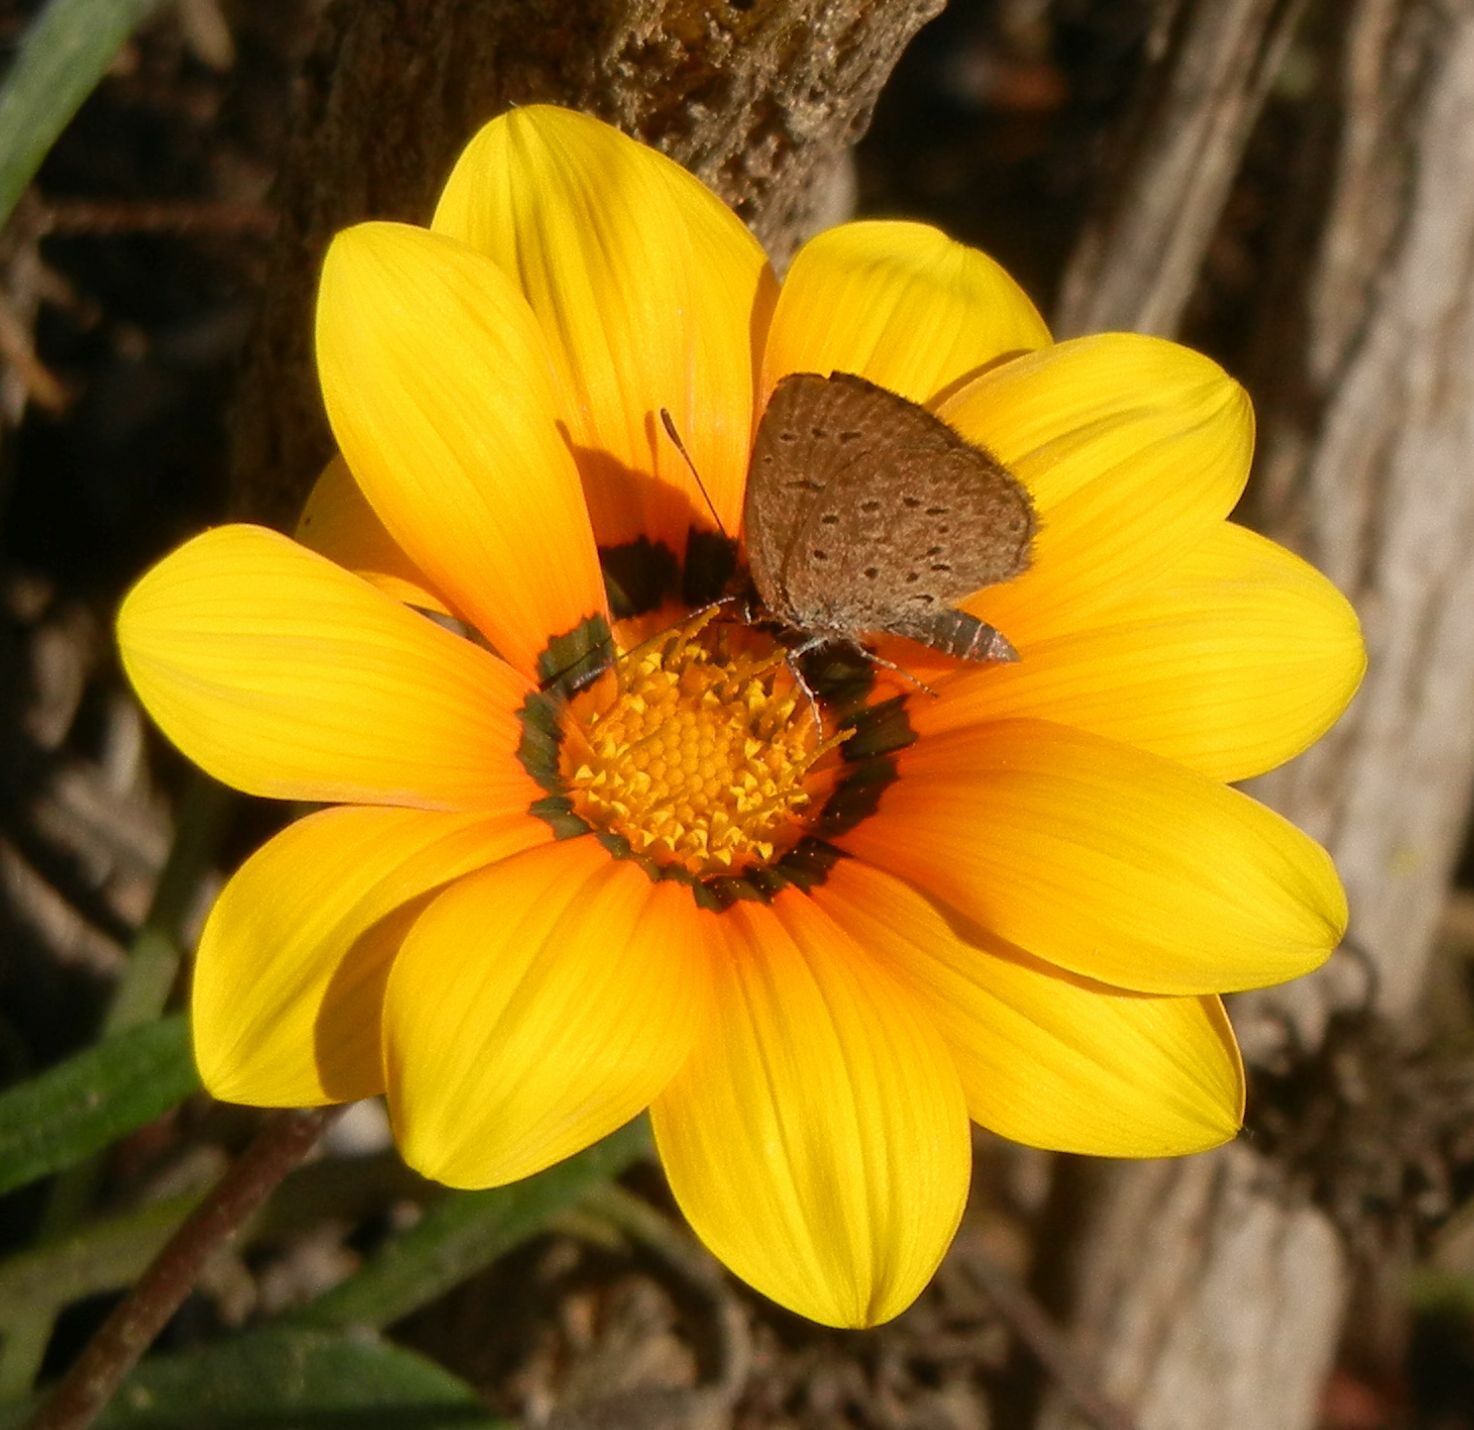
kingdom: Animalia
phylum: Arthropoda
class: Insecta
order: Lepidoptera
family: Lycaenidae
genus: Zizeeria
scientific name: Zizeeria knysna
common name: African grass blue
